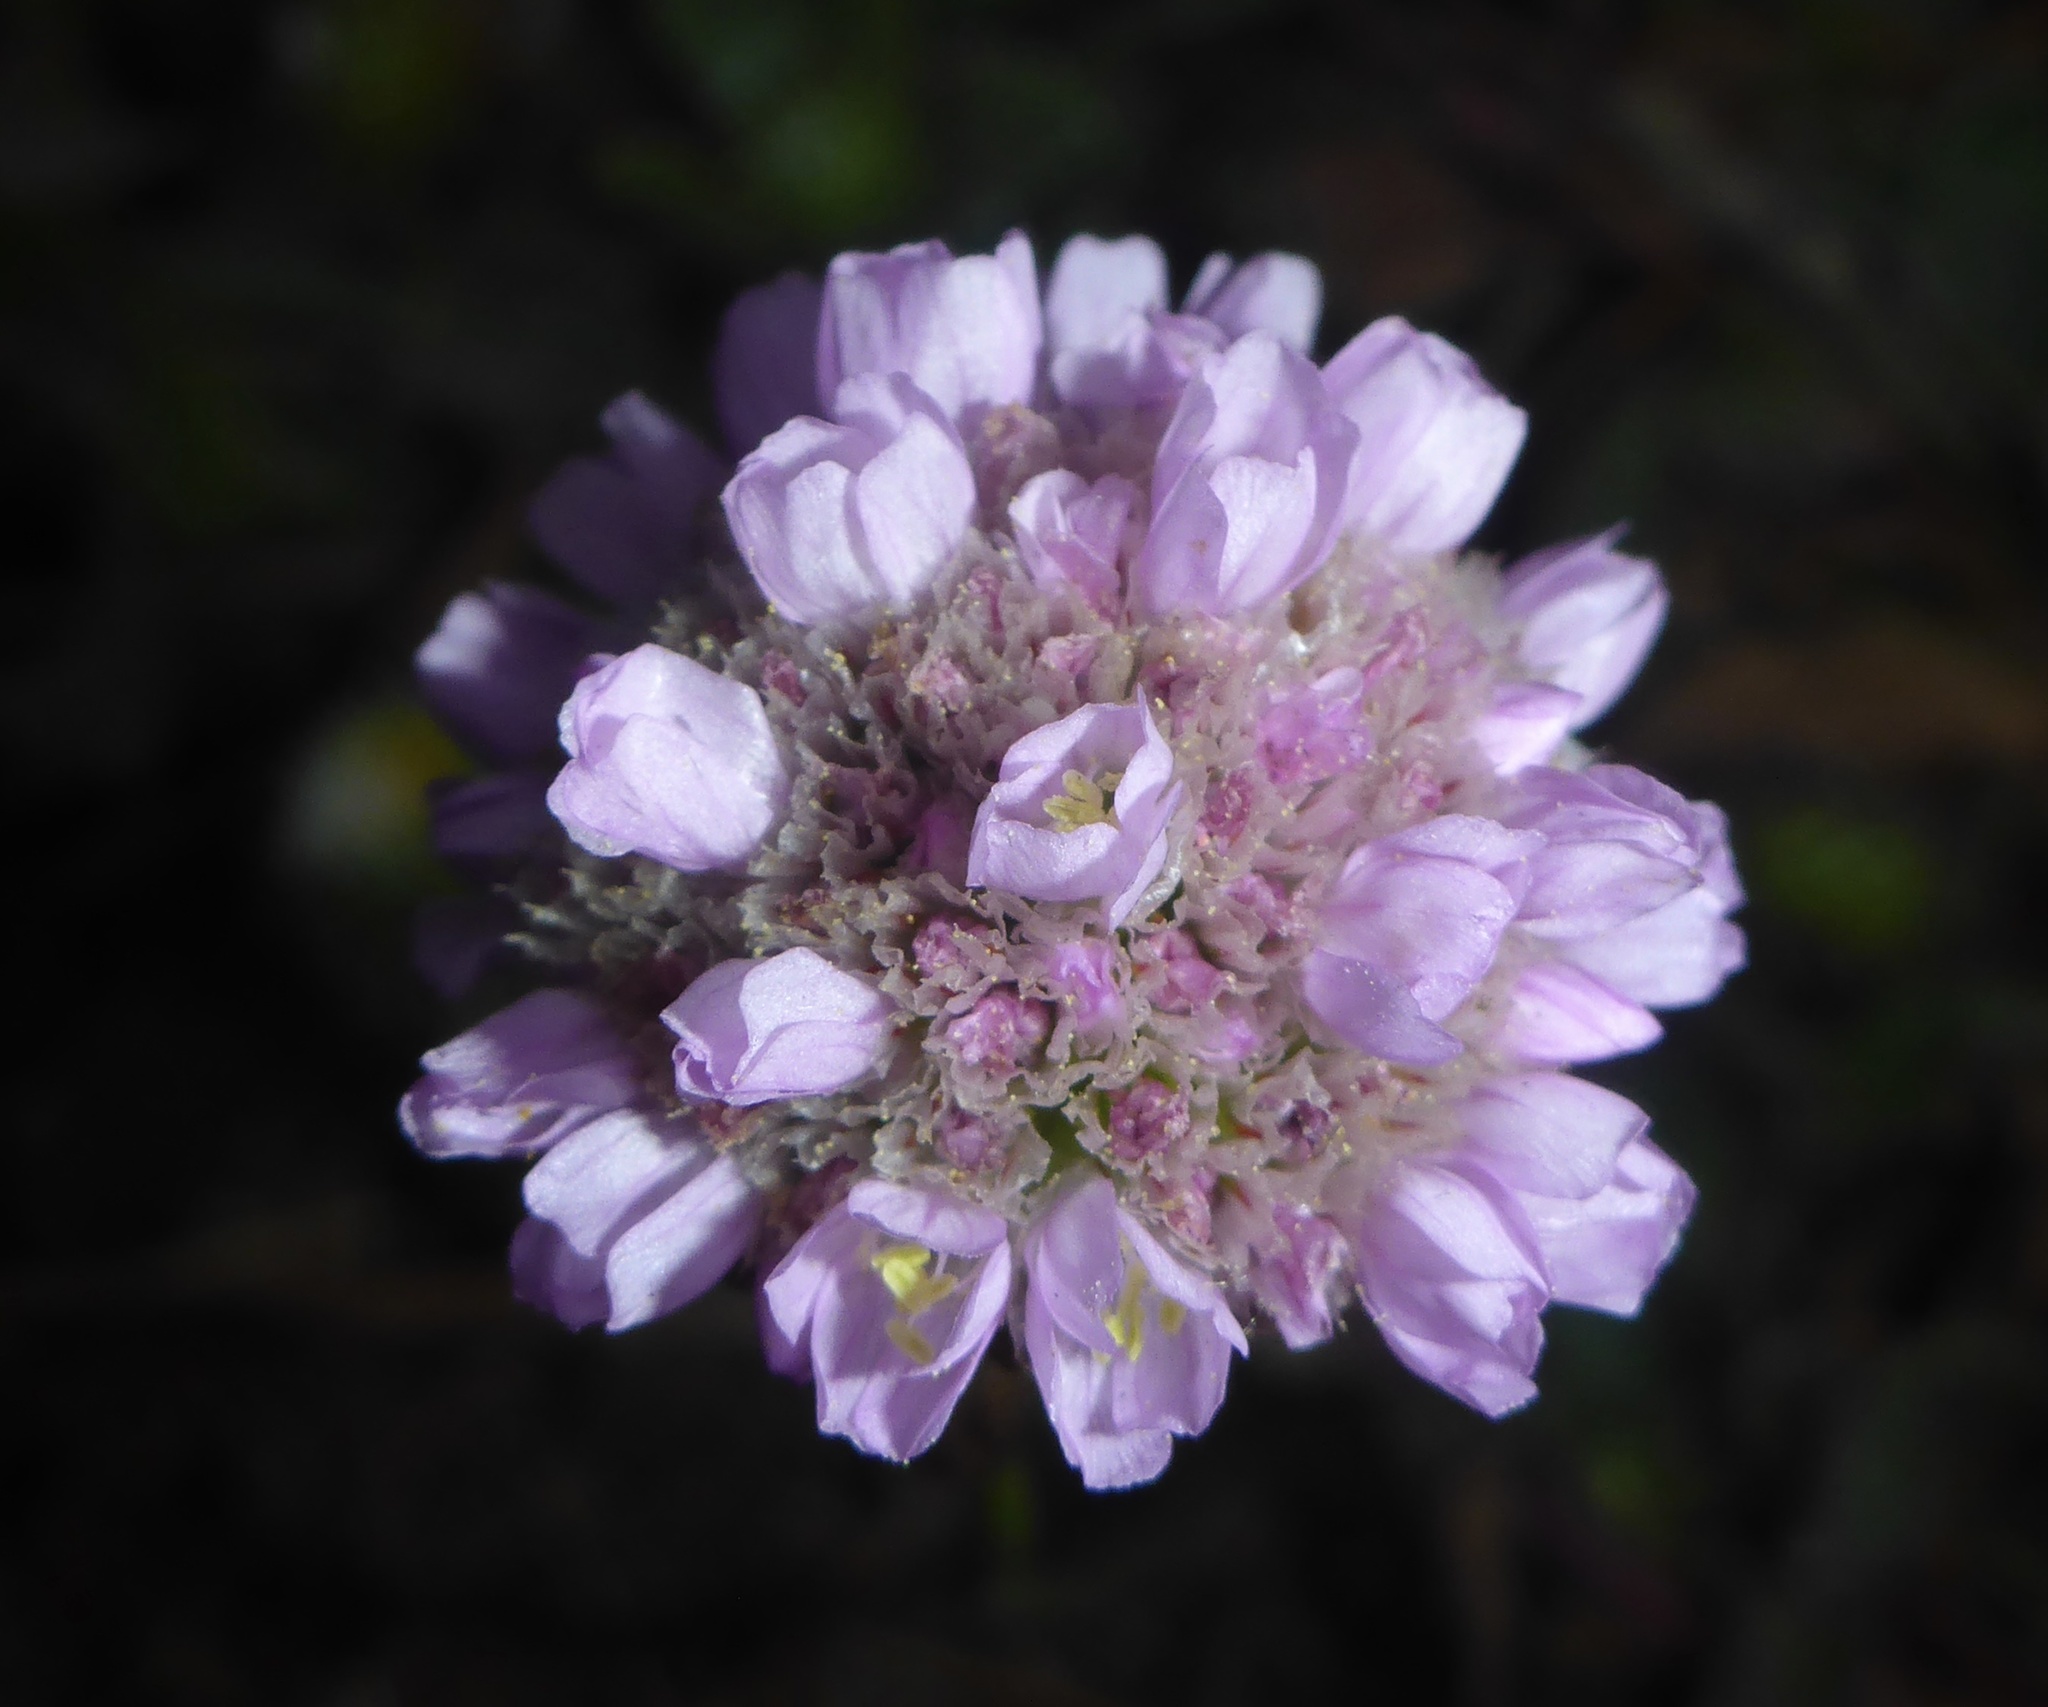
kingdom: Plantae
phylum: Tracheophyta
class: Magnoliopsida
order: Caryophyllales
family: Plumbaginaceae
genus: Armeria
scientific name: Armeria maritima
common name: Thrift
